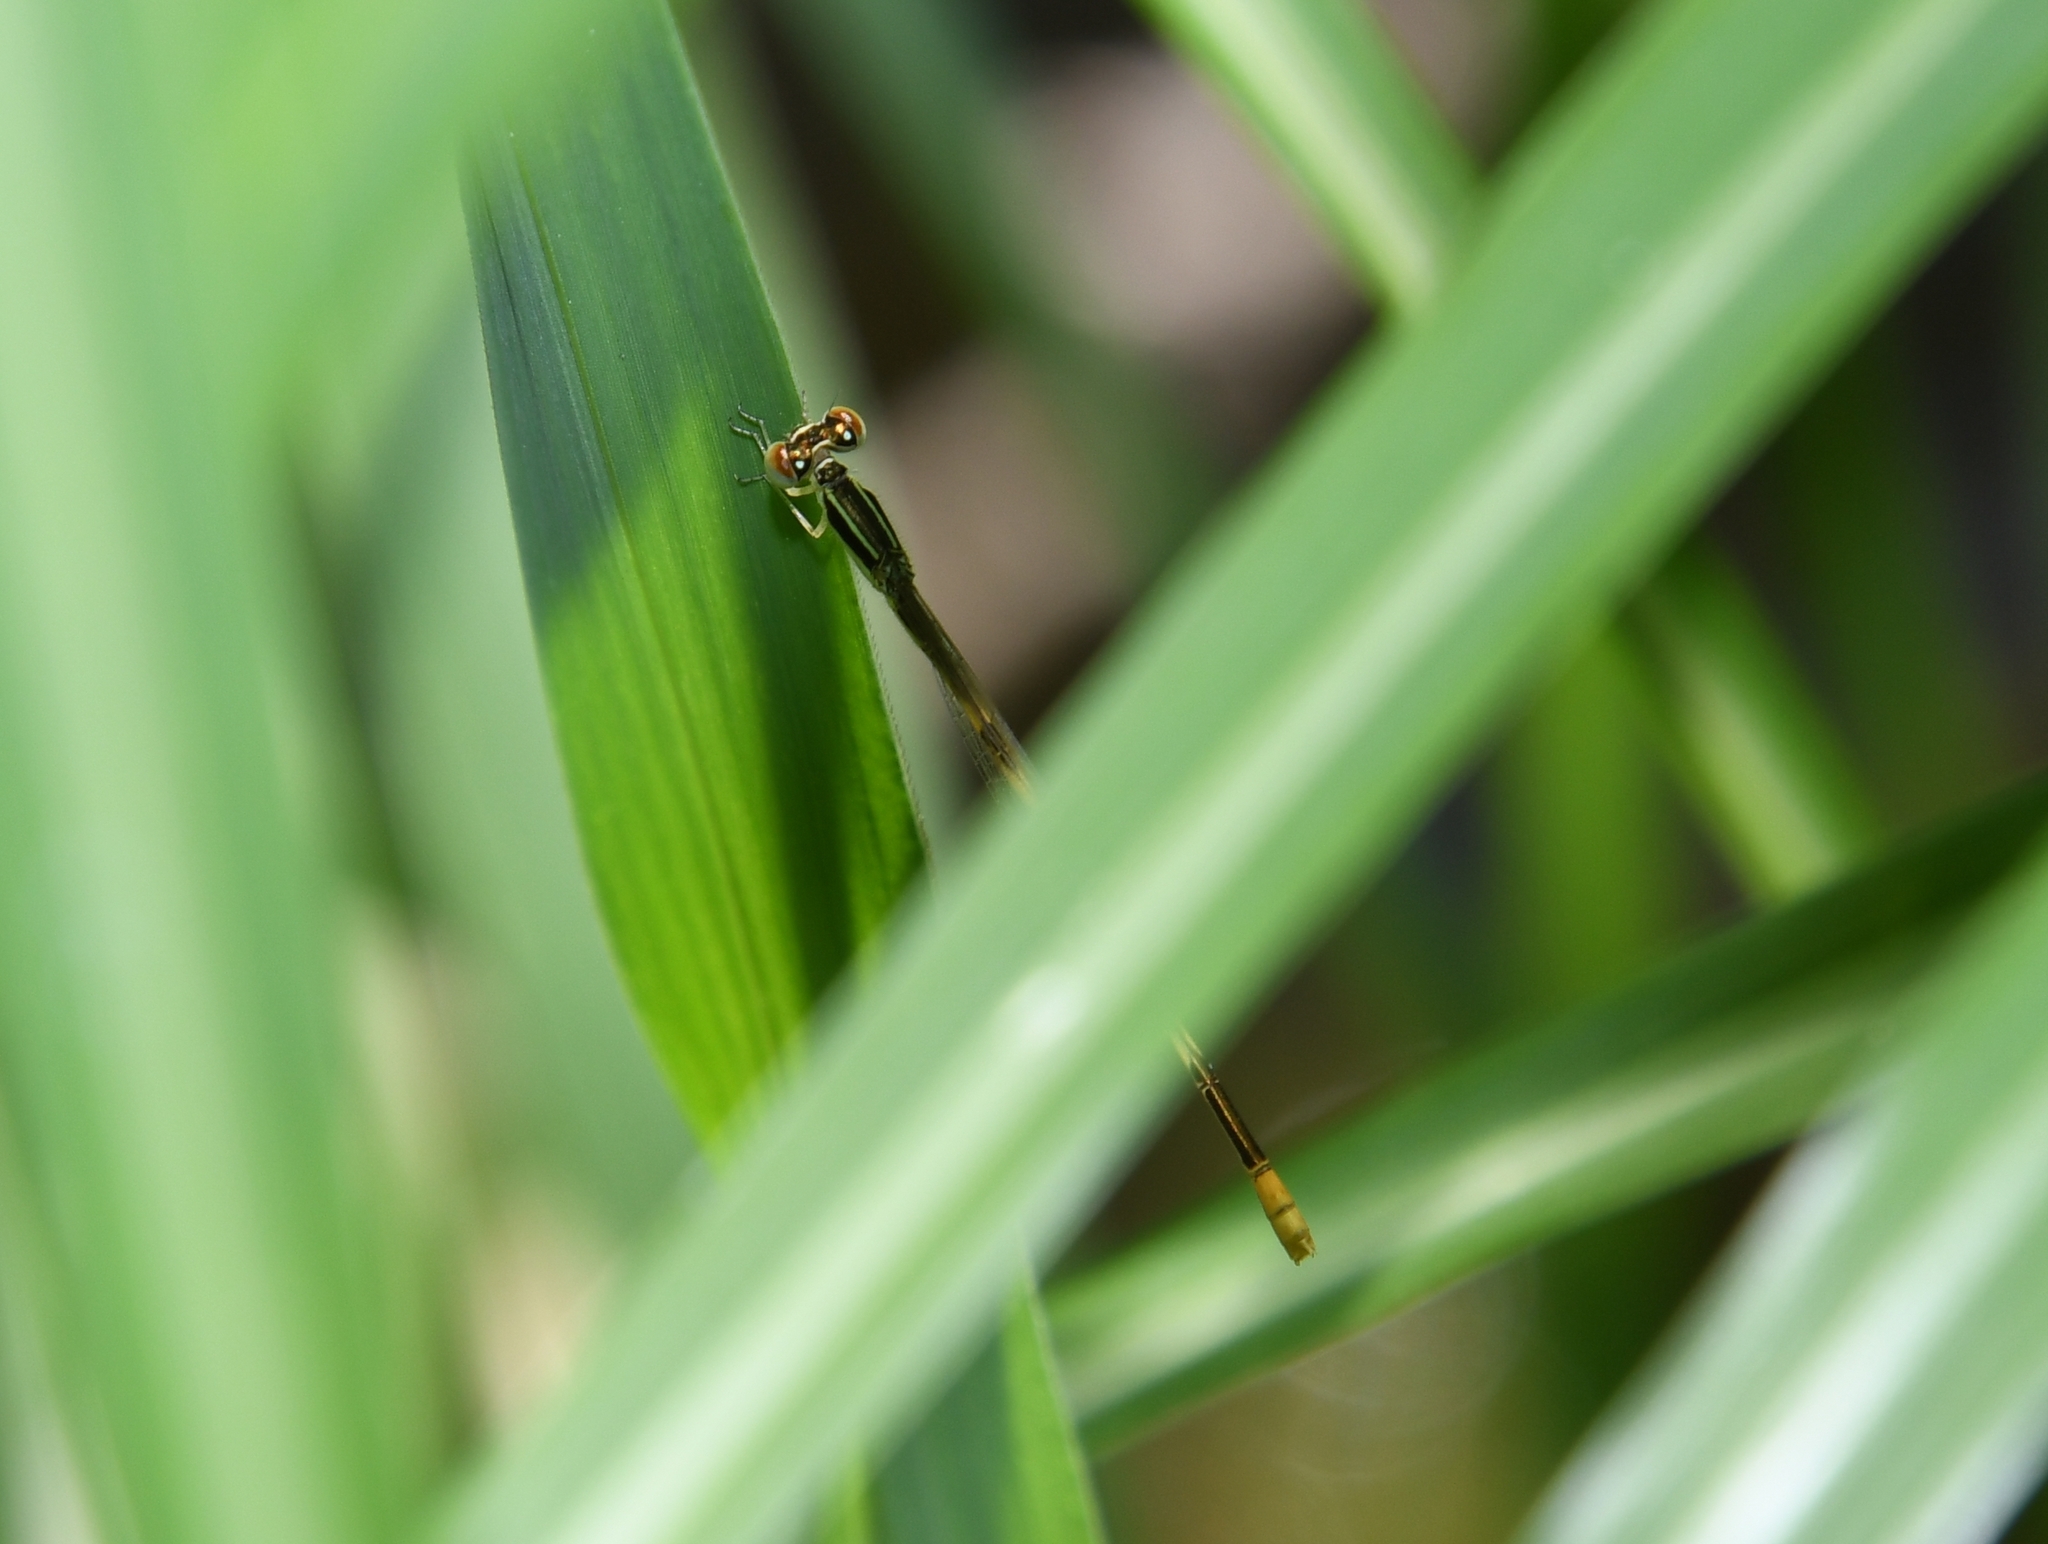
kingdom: Animalia
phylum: Arthropoda
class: Insecta
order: Odonata
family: Coenagrionidae
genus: Ischnura
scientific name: Ischnura hastata
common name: Citrine forktail
